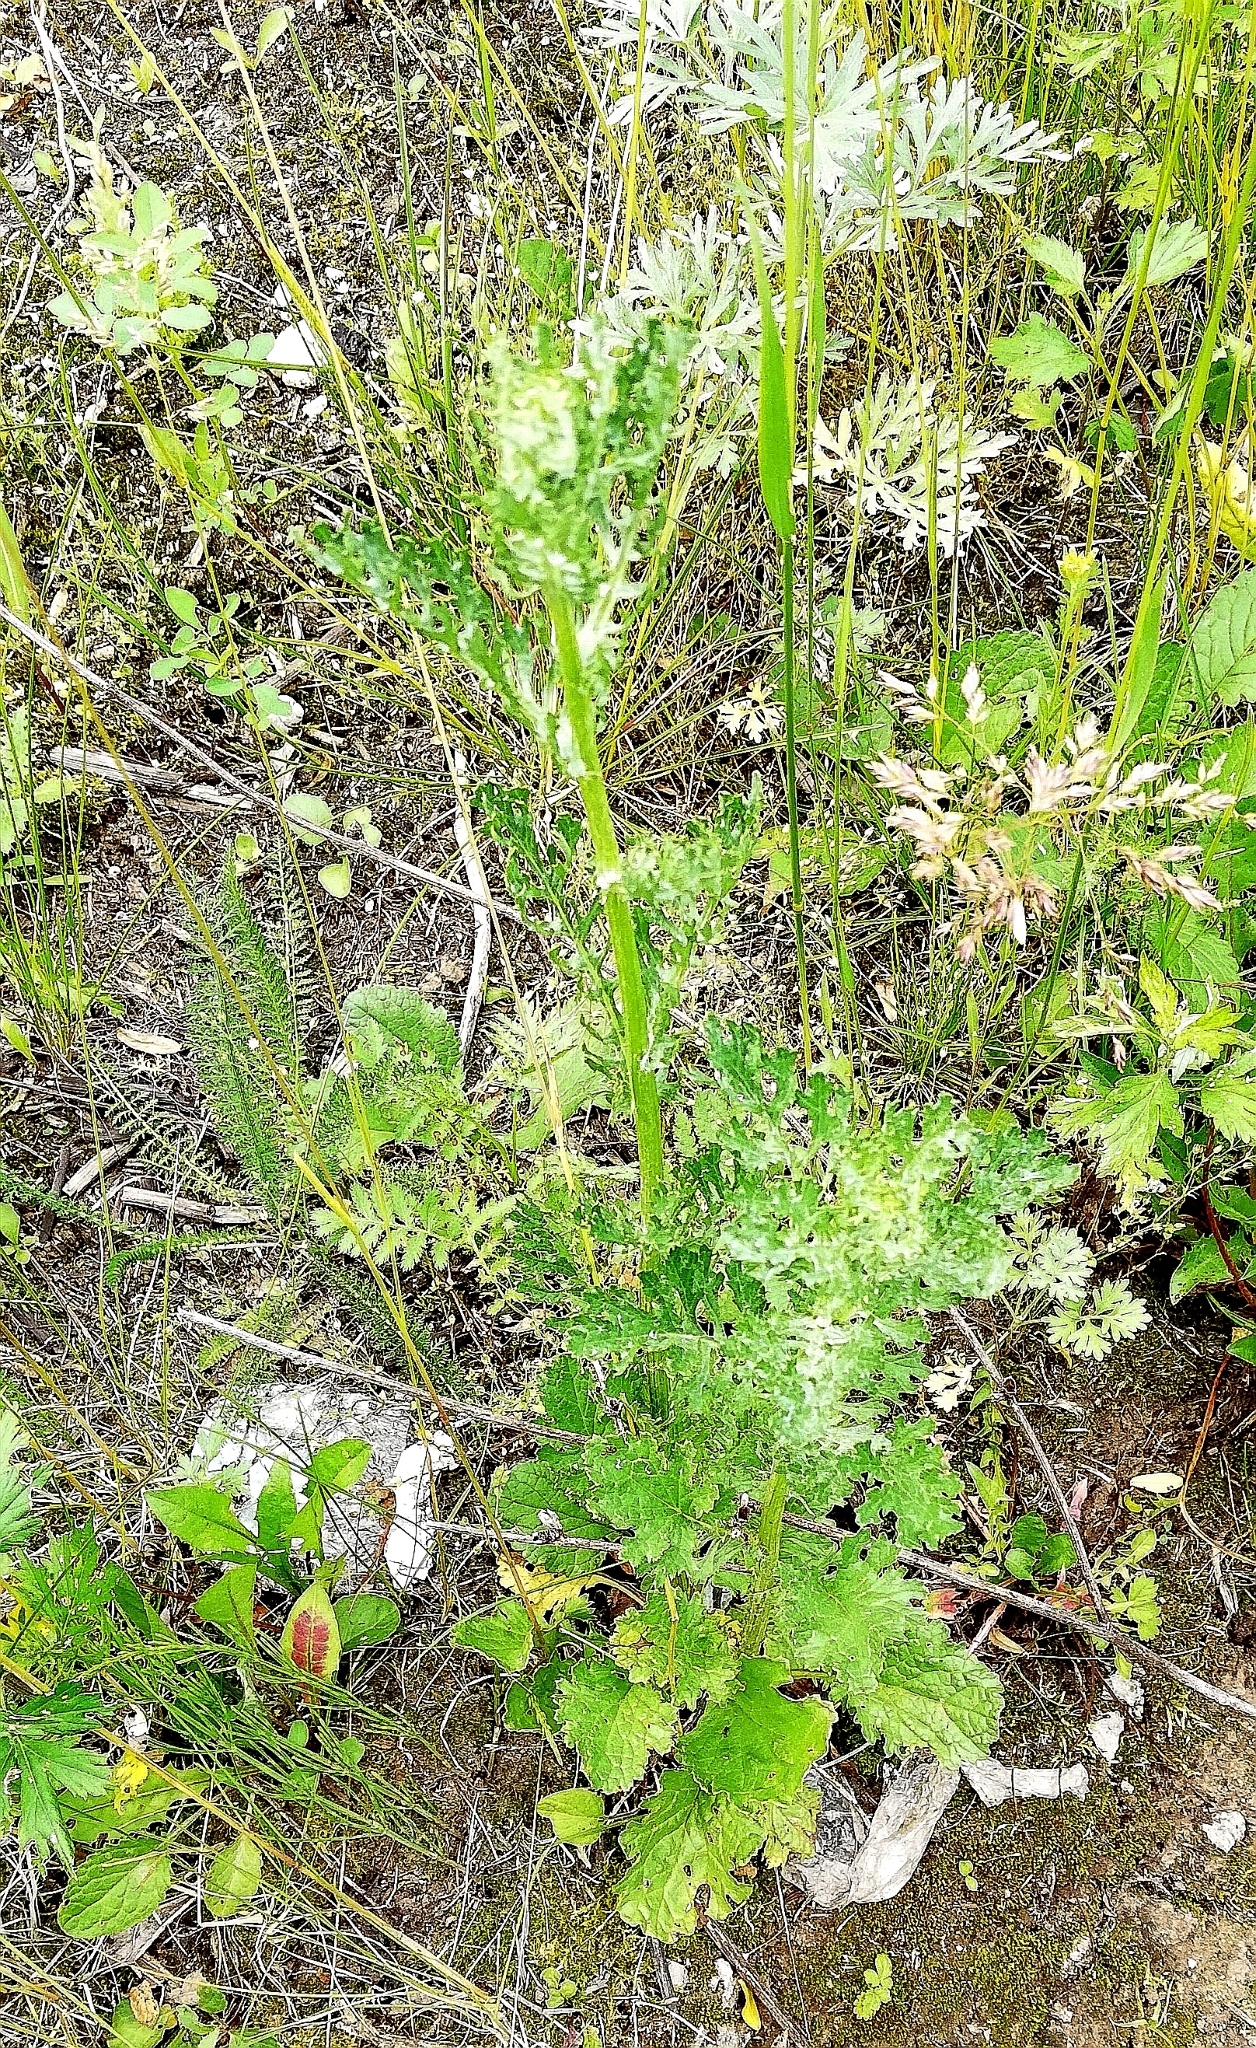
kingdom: Plantae
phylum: Tracheophyta
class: Magnoliopsida
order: Asterales
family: Asteraceae
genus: Jacobaea
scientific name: Jacobaea vulgaris
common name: Stinking willie
